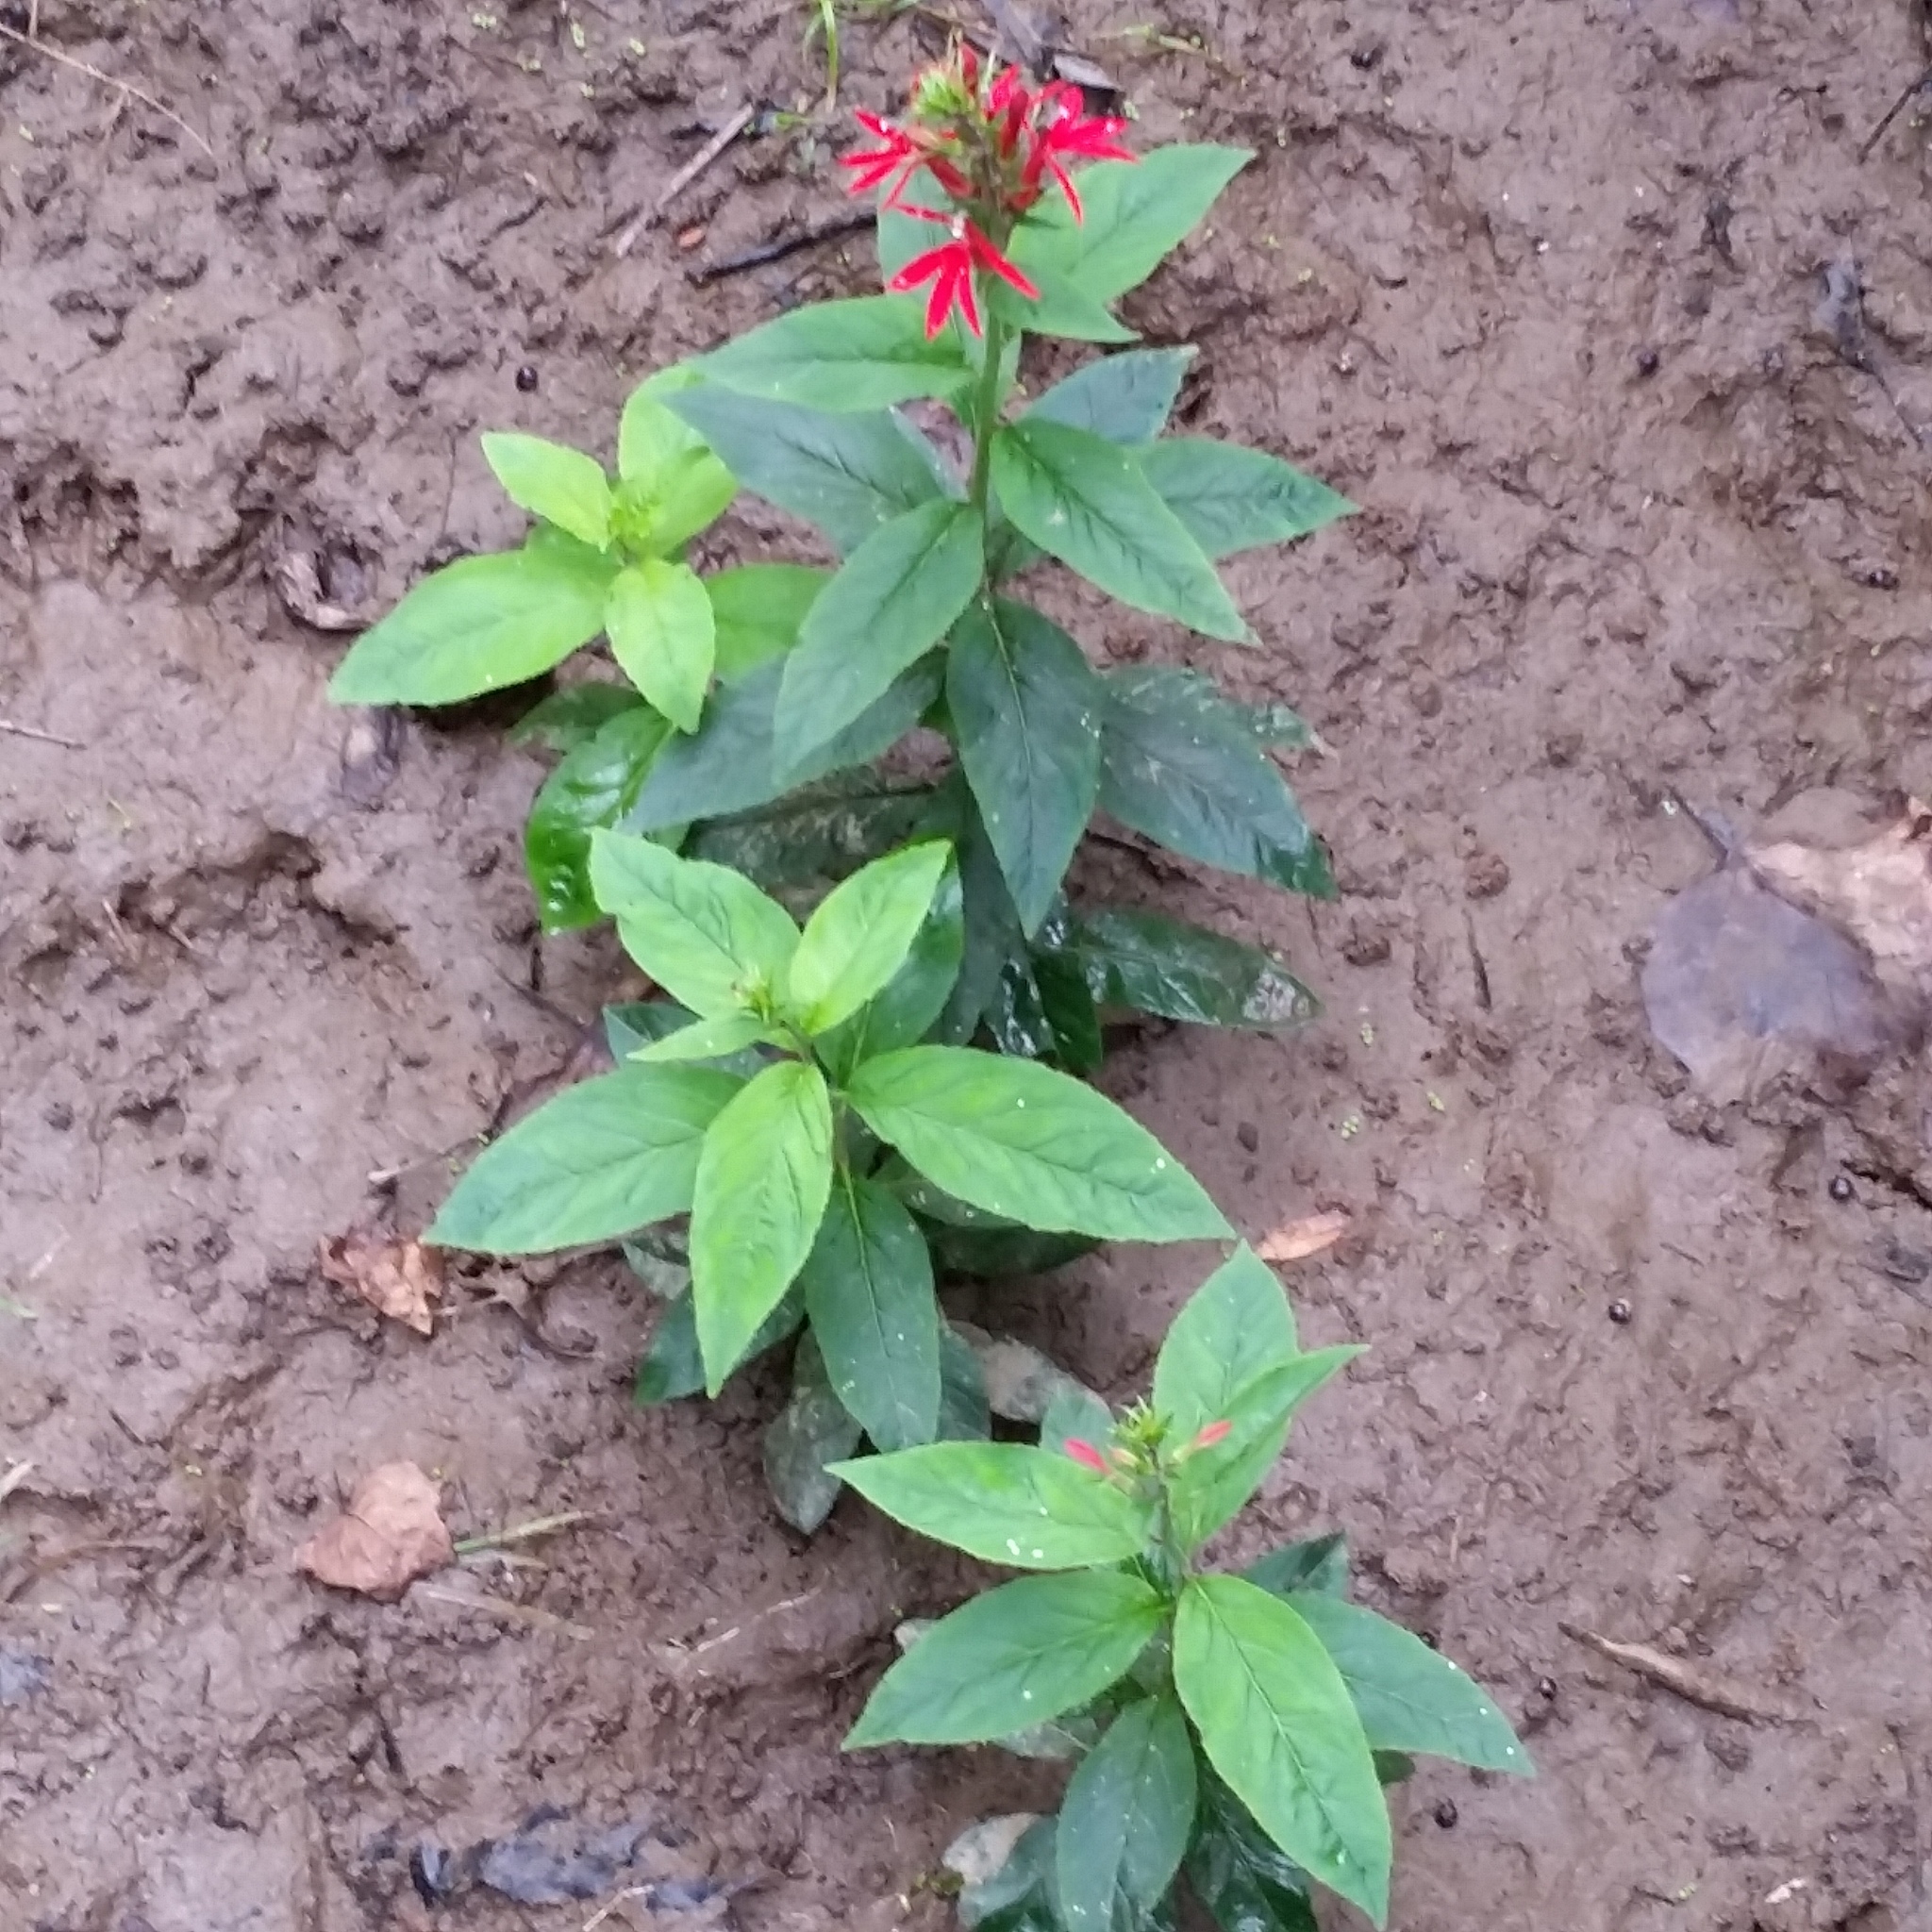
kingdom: Plantae
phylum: Tracheophyta
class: Magnoliopsida
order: Asterales
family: Campanulaceae
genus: Lobelia
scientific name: Lobelia cardinalis
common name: Cardinal flower
